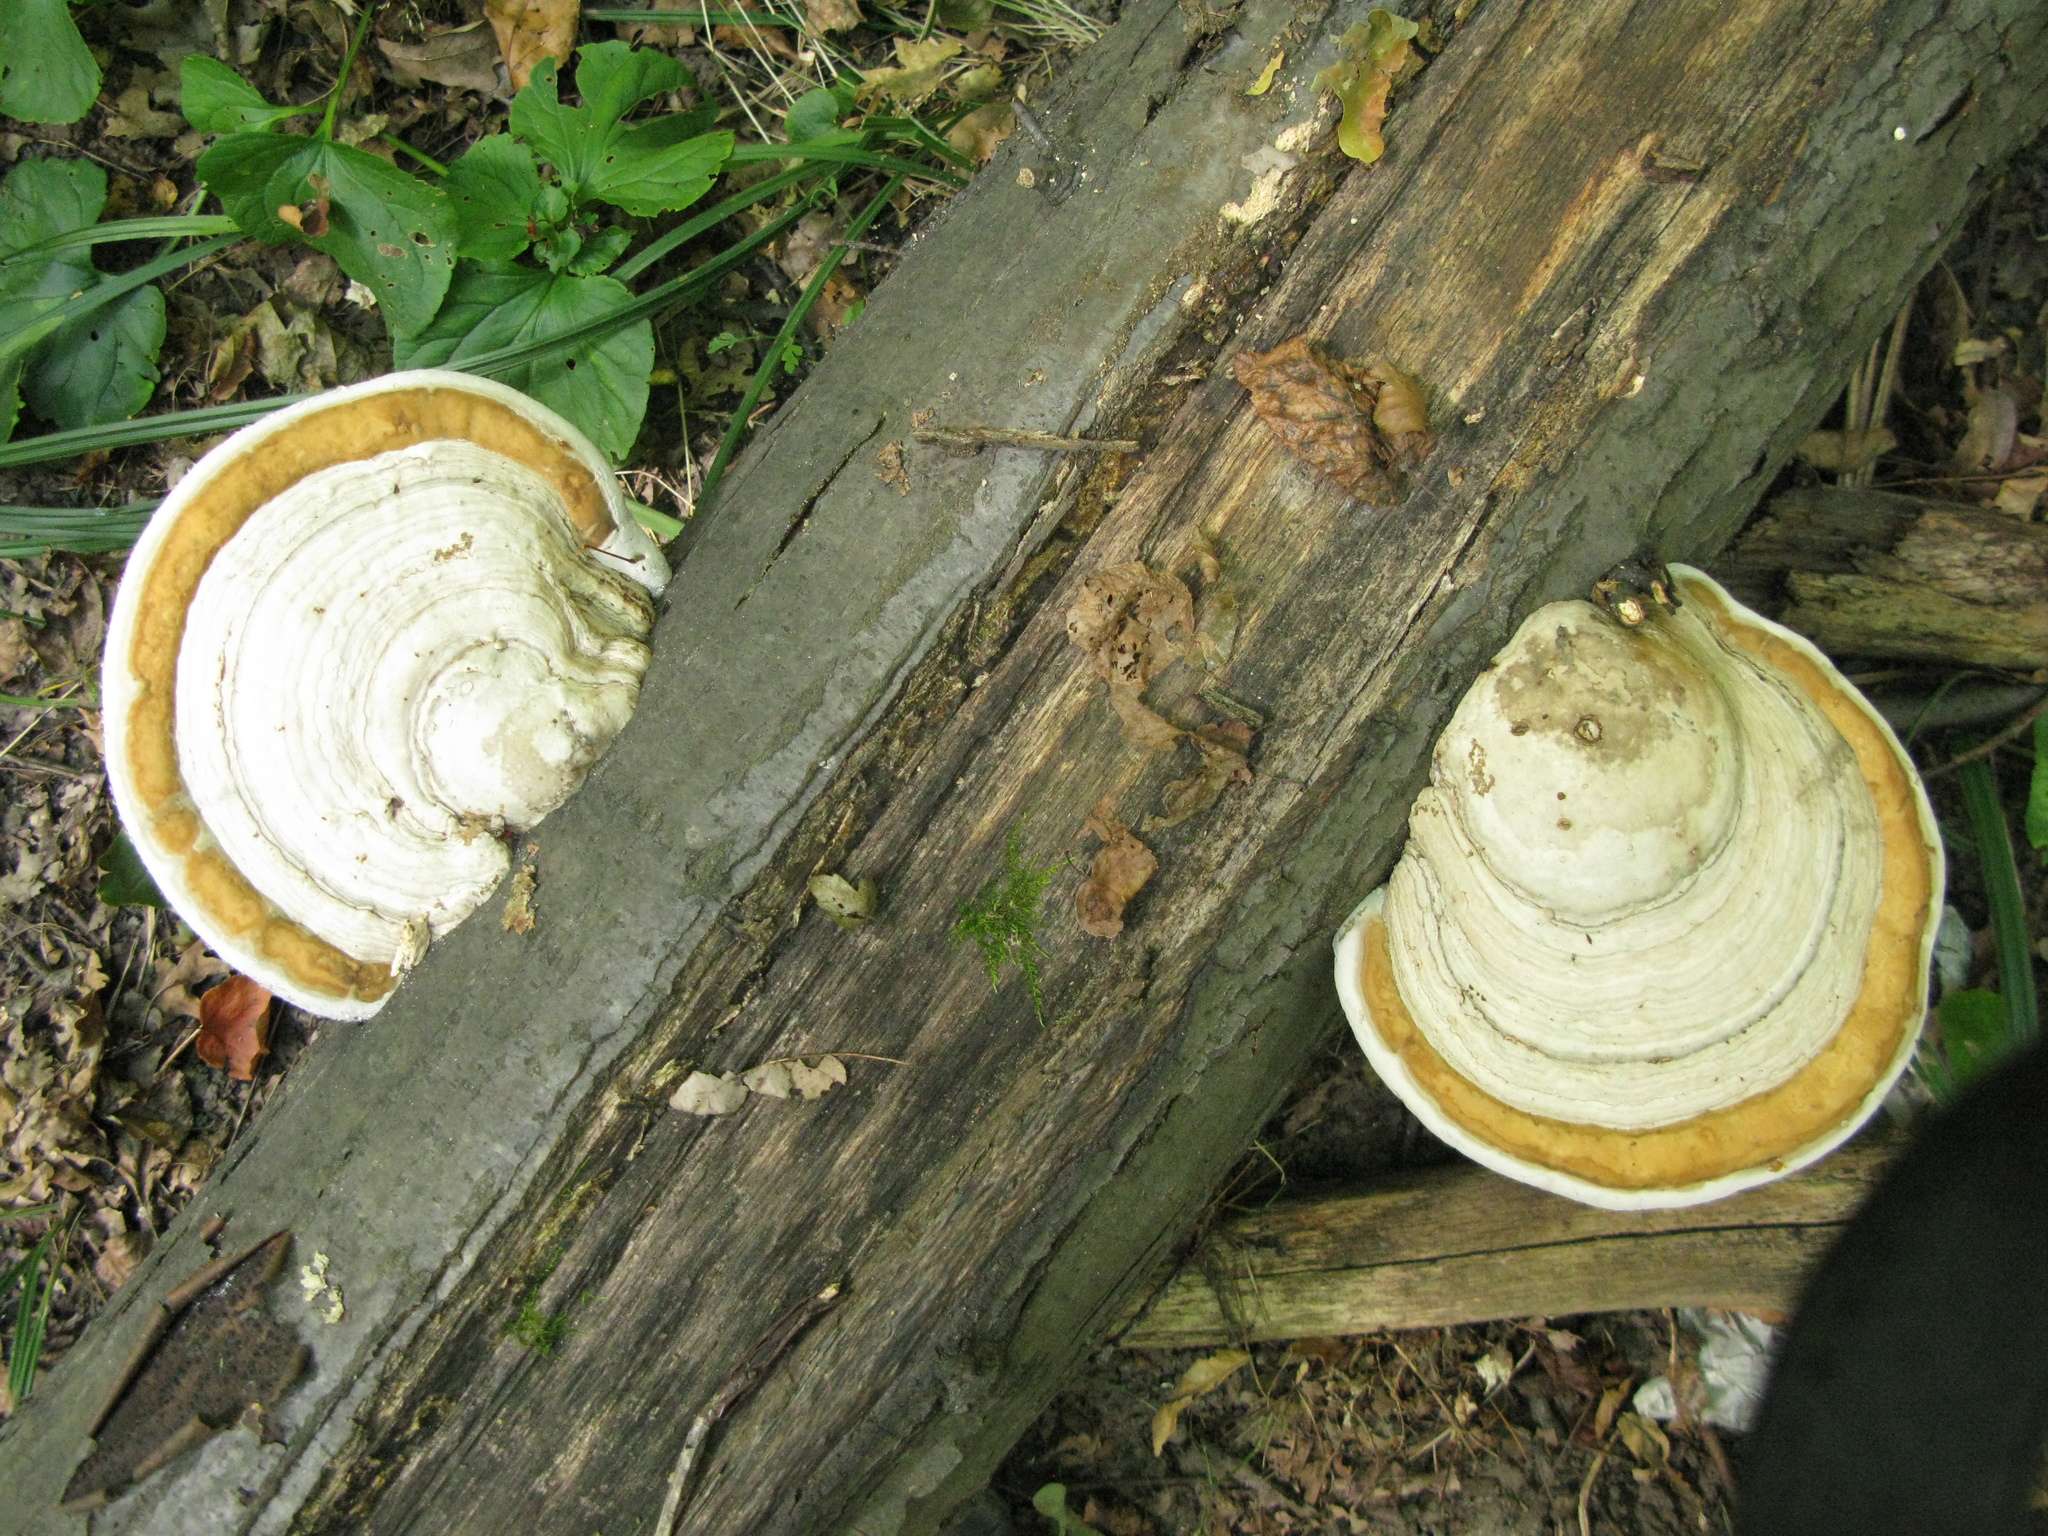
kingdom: Fungi
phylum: Basidiomycota
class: Agaricomycetes
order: Polyporales
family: Polyporaceae
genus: Fomes
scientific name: Fomes fomentarius
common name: Hoof fungus
